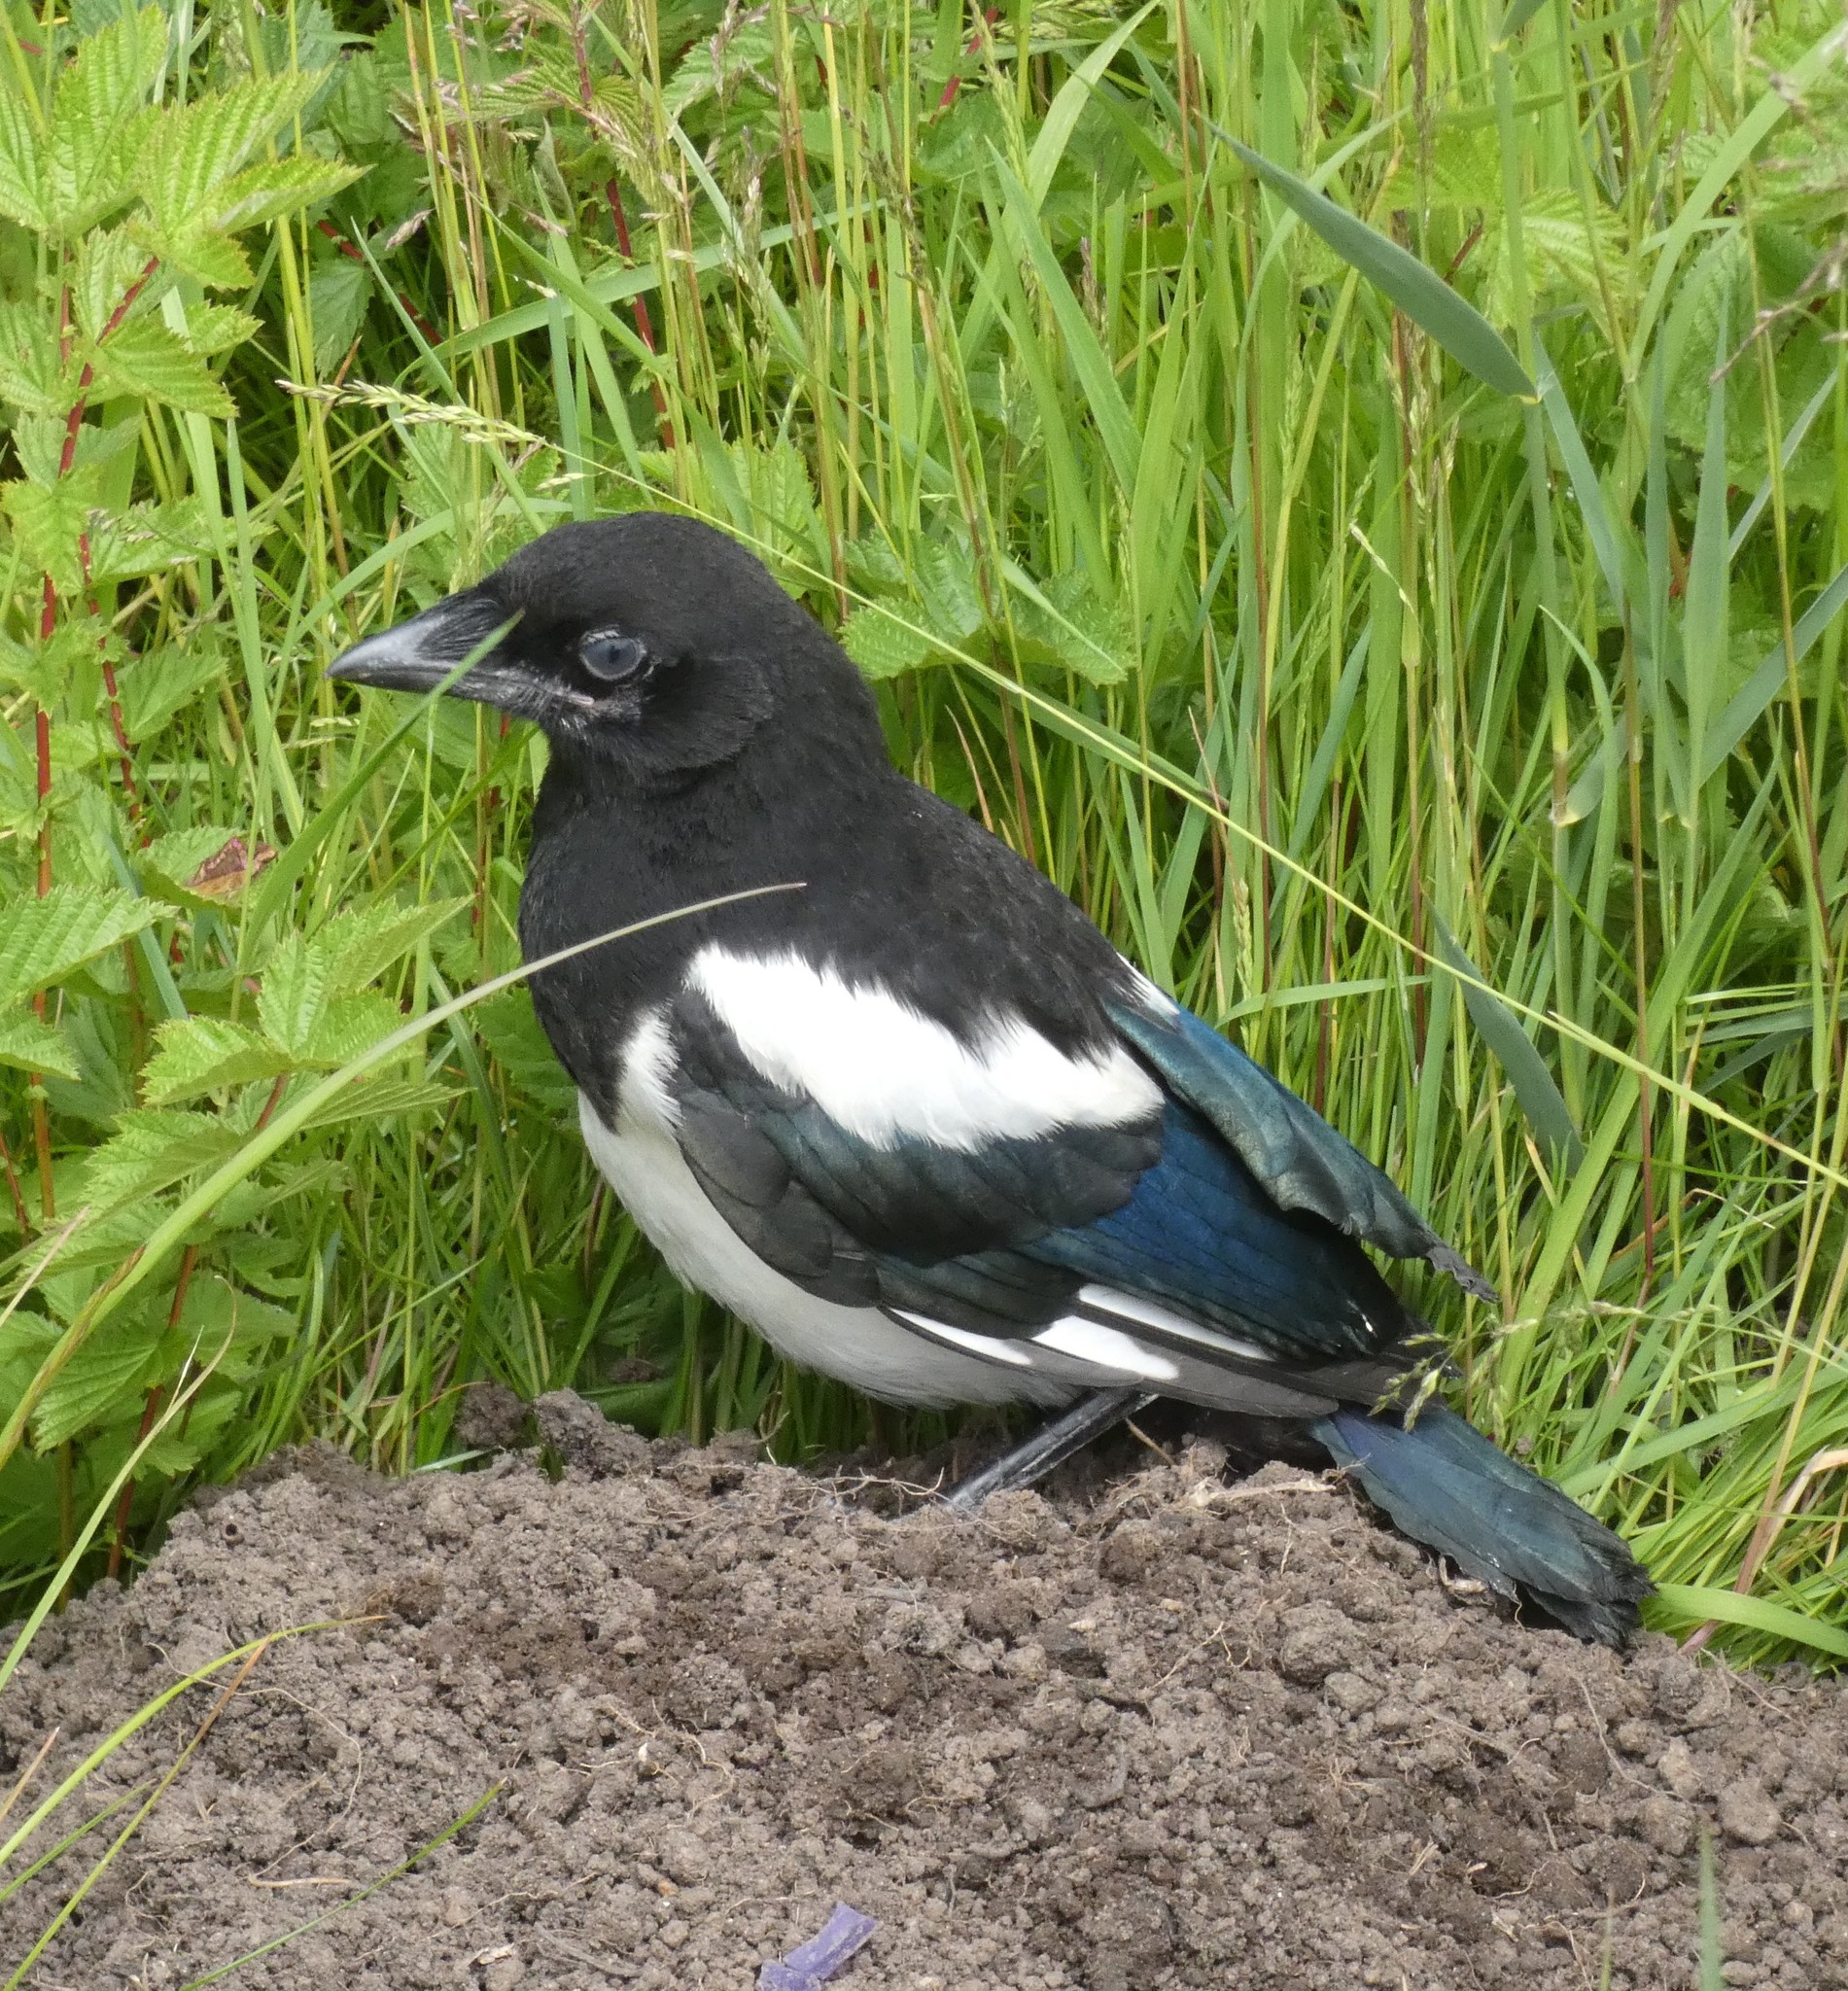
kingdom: Animalia
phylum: Chordata
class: Aves
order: Passeriformes
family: Corvidae
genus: Pica
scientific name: Pica pica
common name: Eurasian magpie
